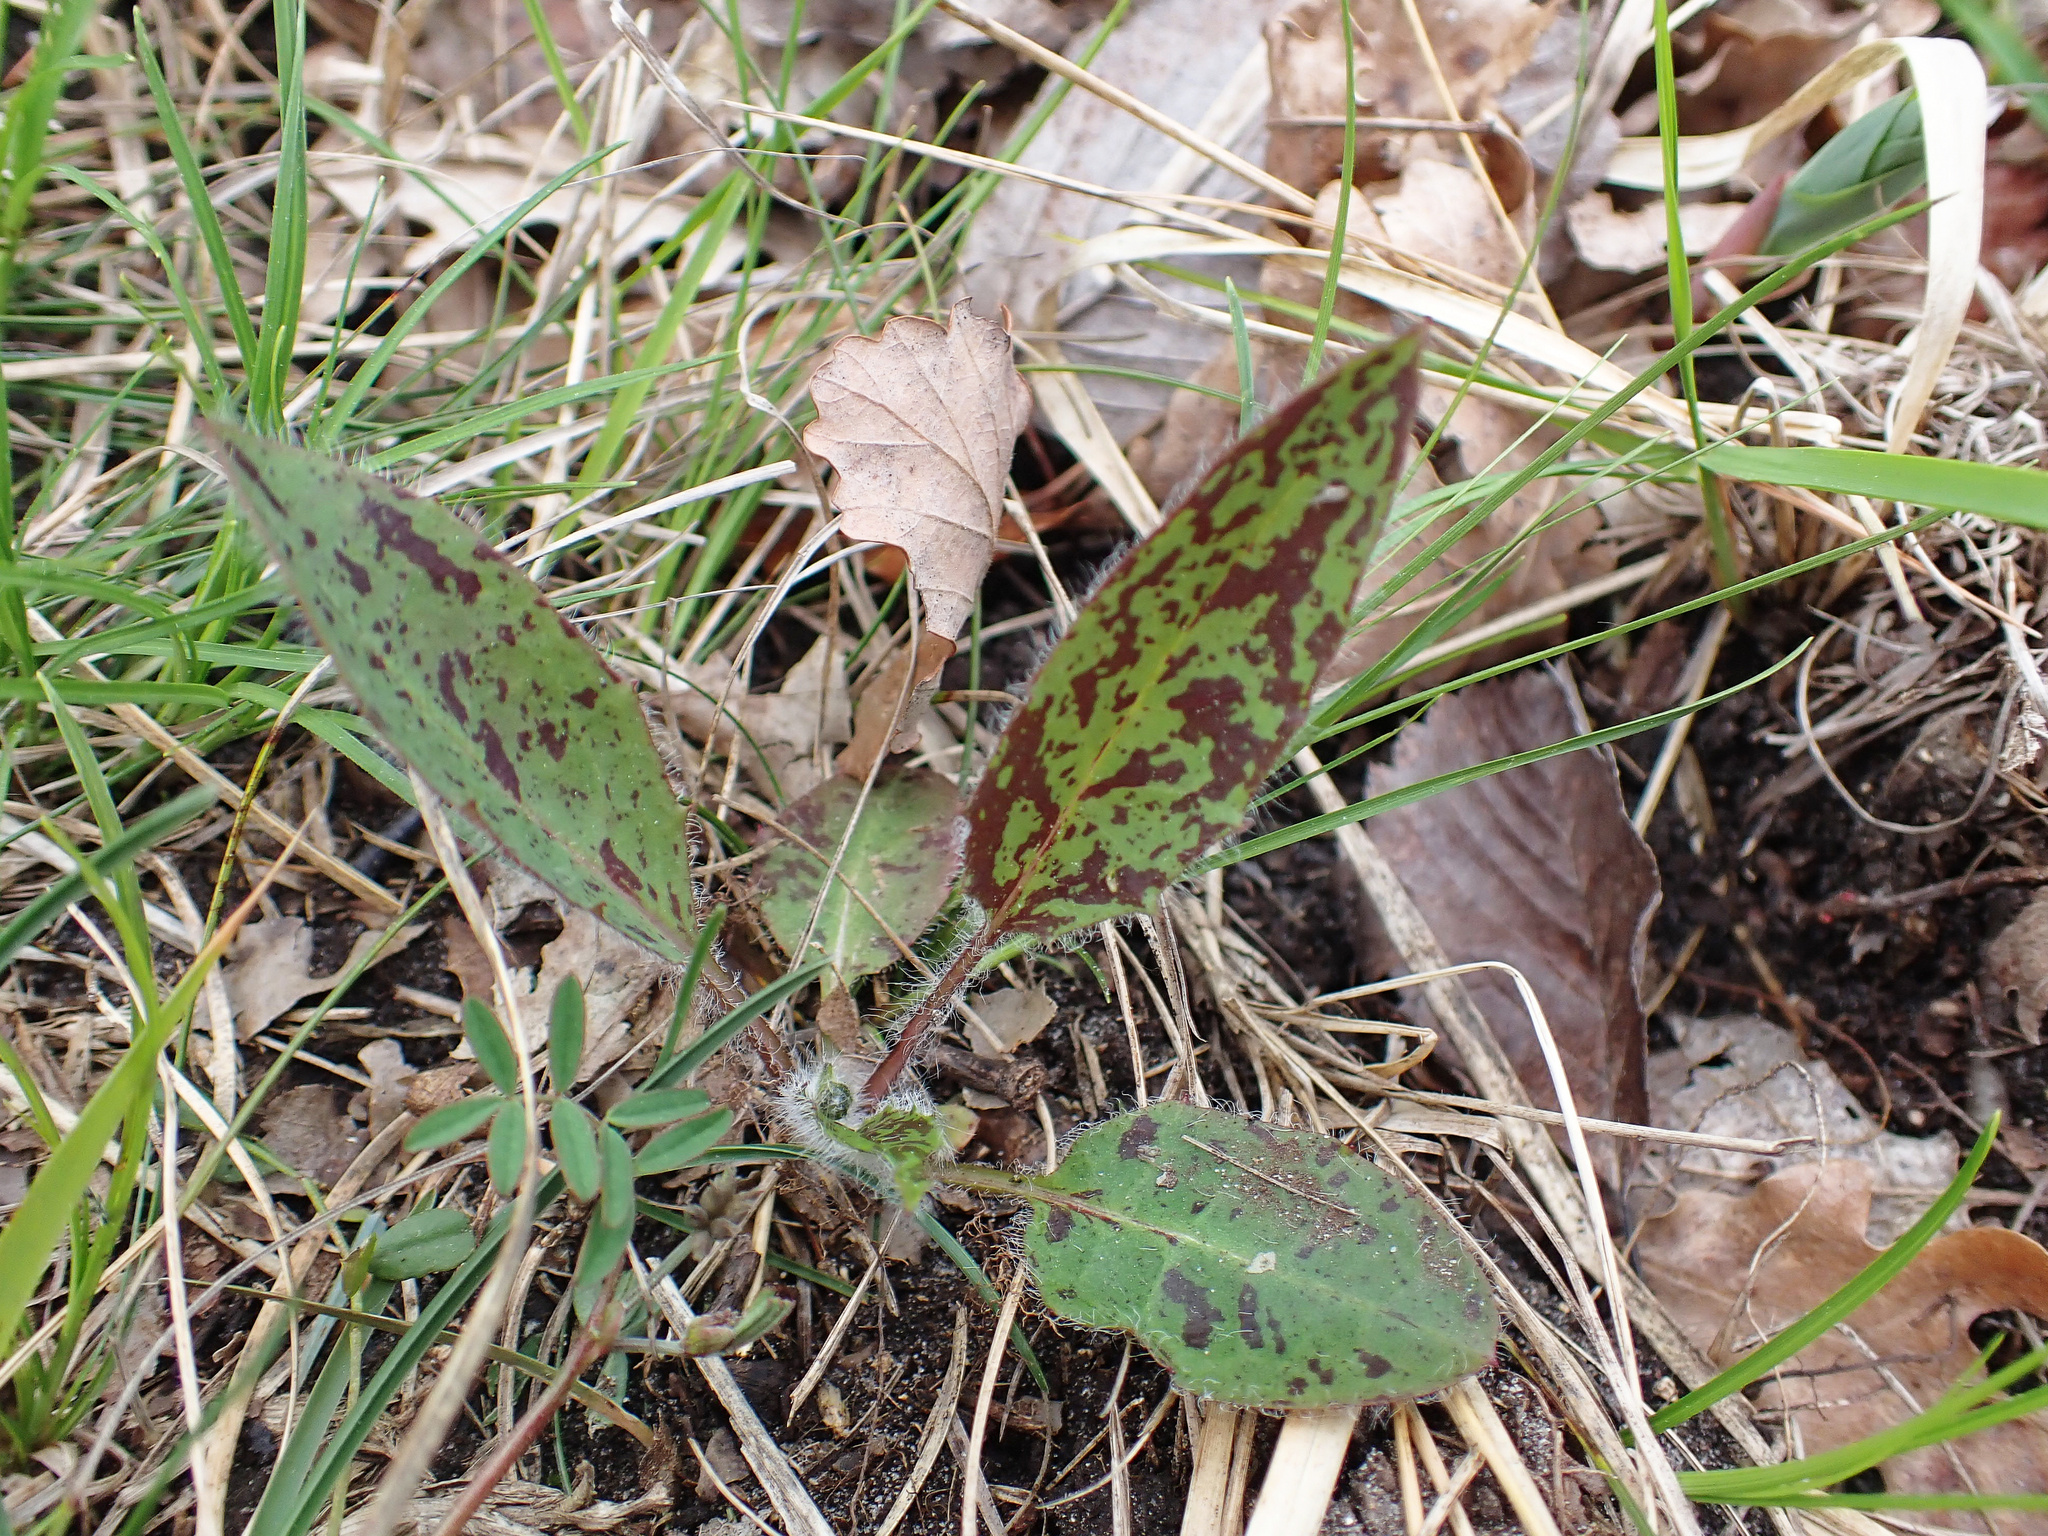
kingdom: Plantae
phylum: Tracheophyta
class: Magnoliopsida
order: Asterales
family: Asteraceae
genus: Hieracium
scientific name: Hieracium maculatum
